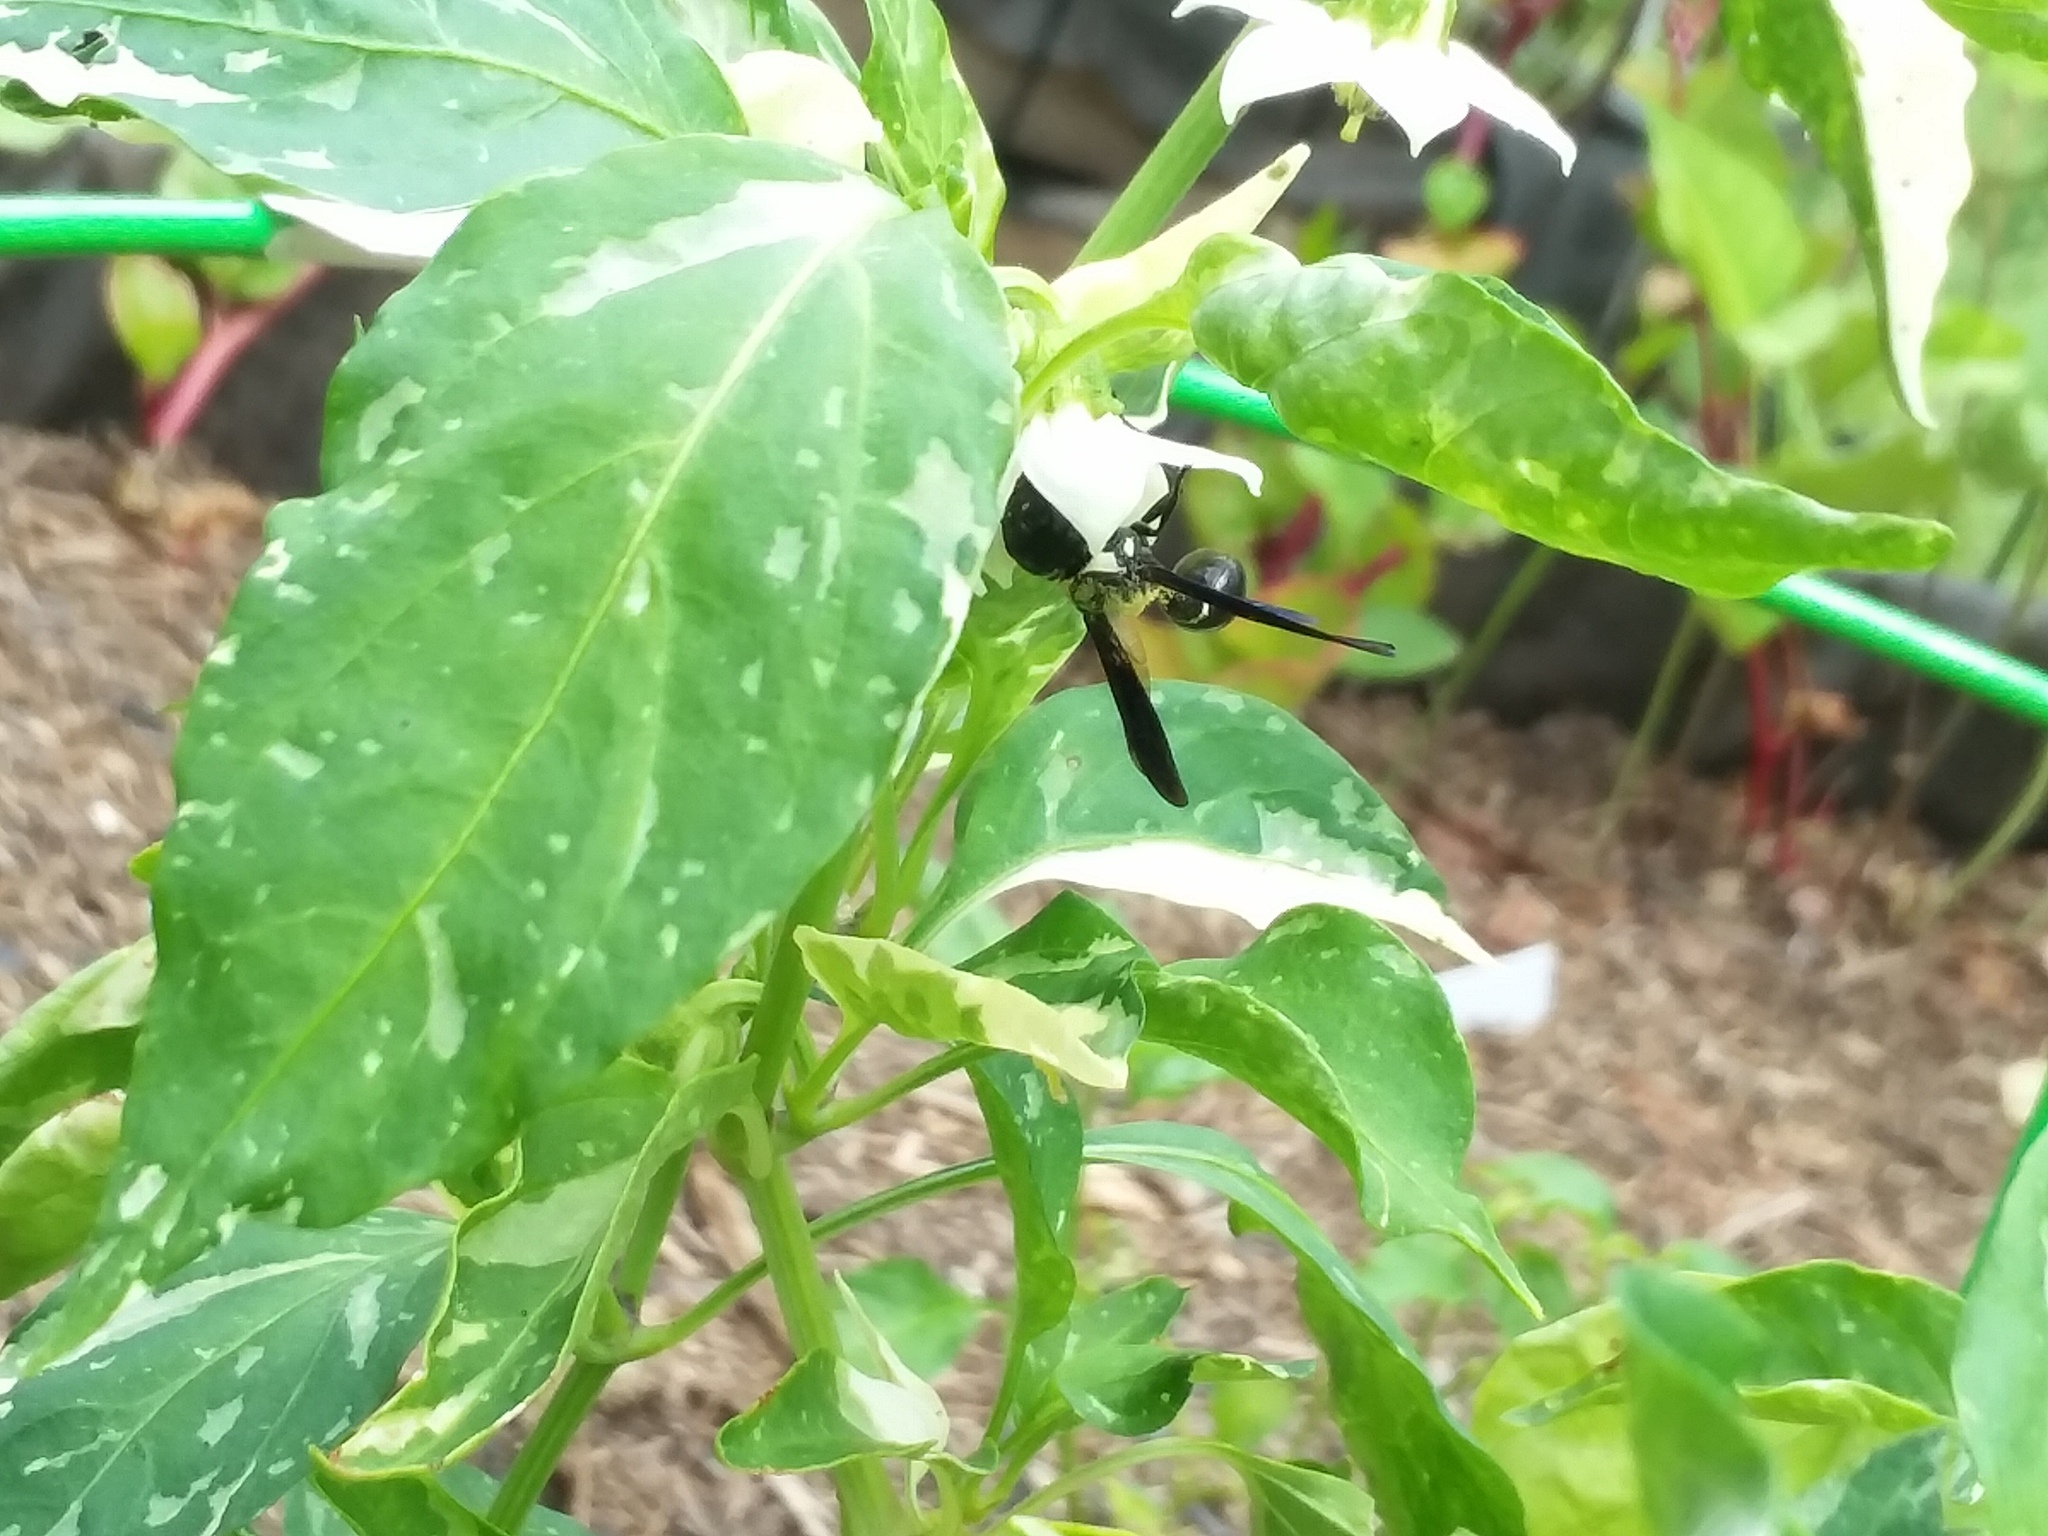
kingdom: Animalia
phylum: Arthropoda
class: Insecta
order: Hymenoptera
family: Eumenidae
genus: Zethus
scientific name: Zethus spinipes
